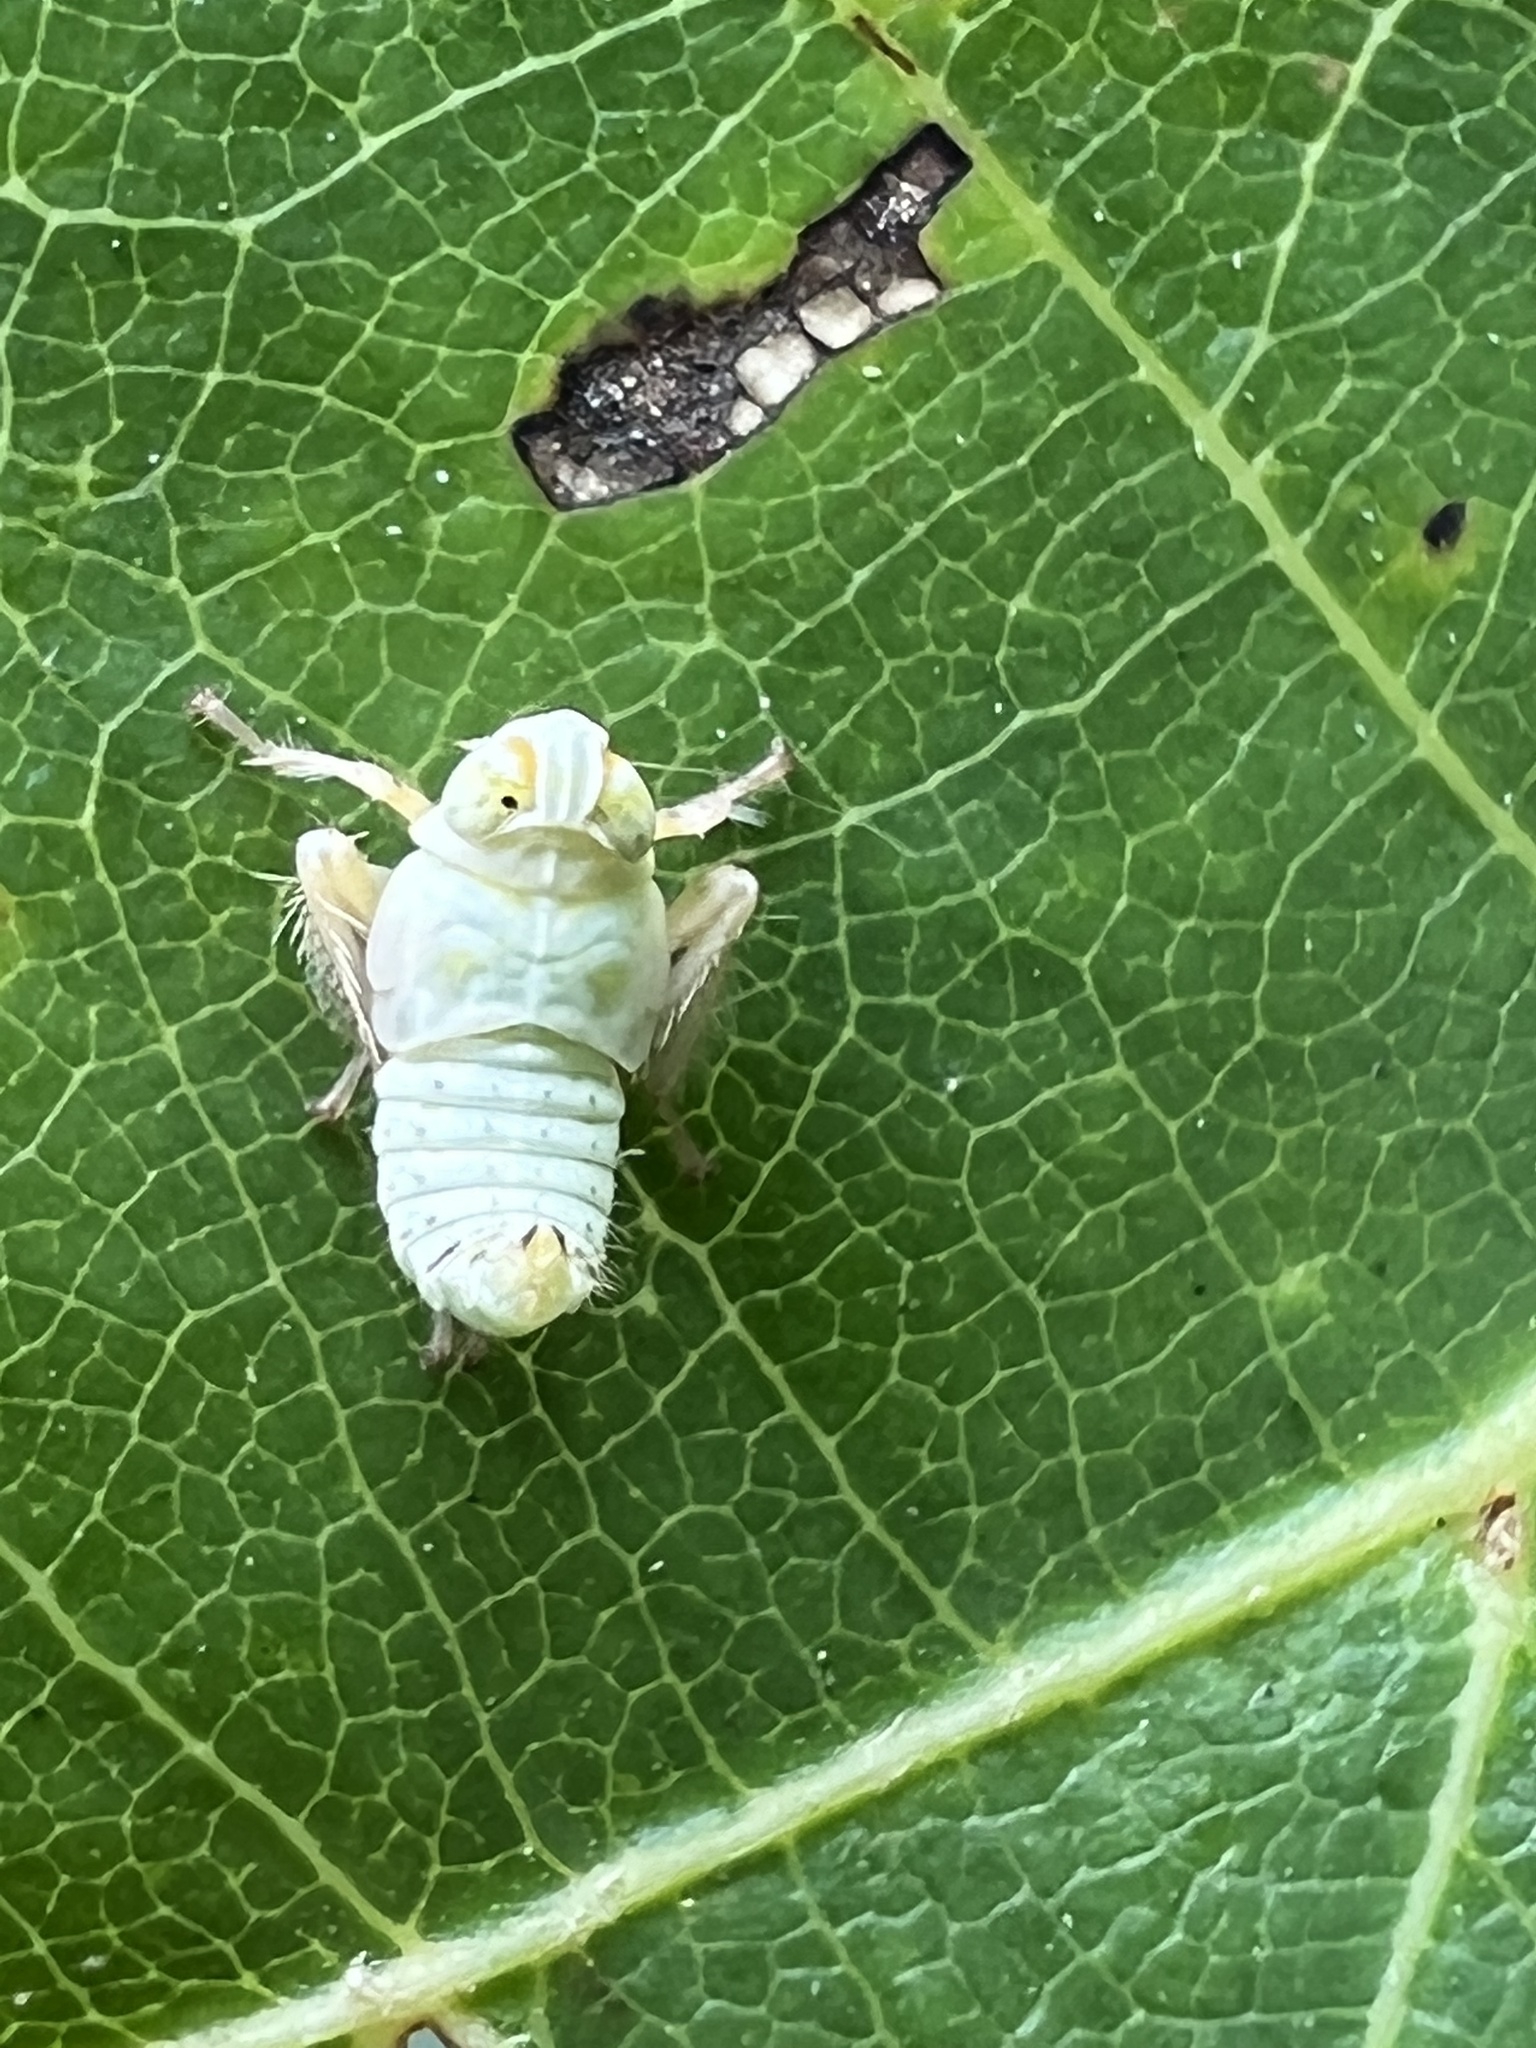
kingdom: Animalia
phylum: Arthropoda
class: Insecta
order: Hemiptera
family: Cicadellidae
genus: Jikradia
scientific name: Jikradia olitoria
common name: Coppery leafhopper
